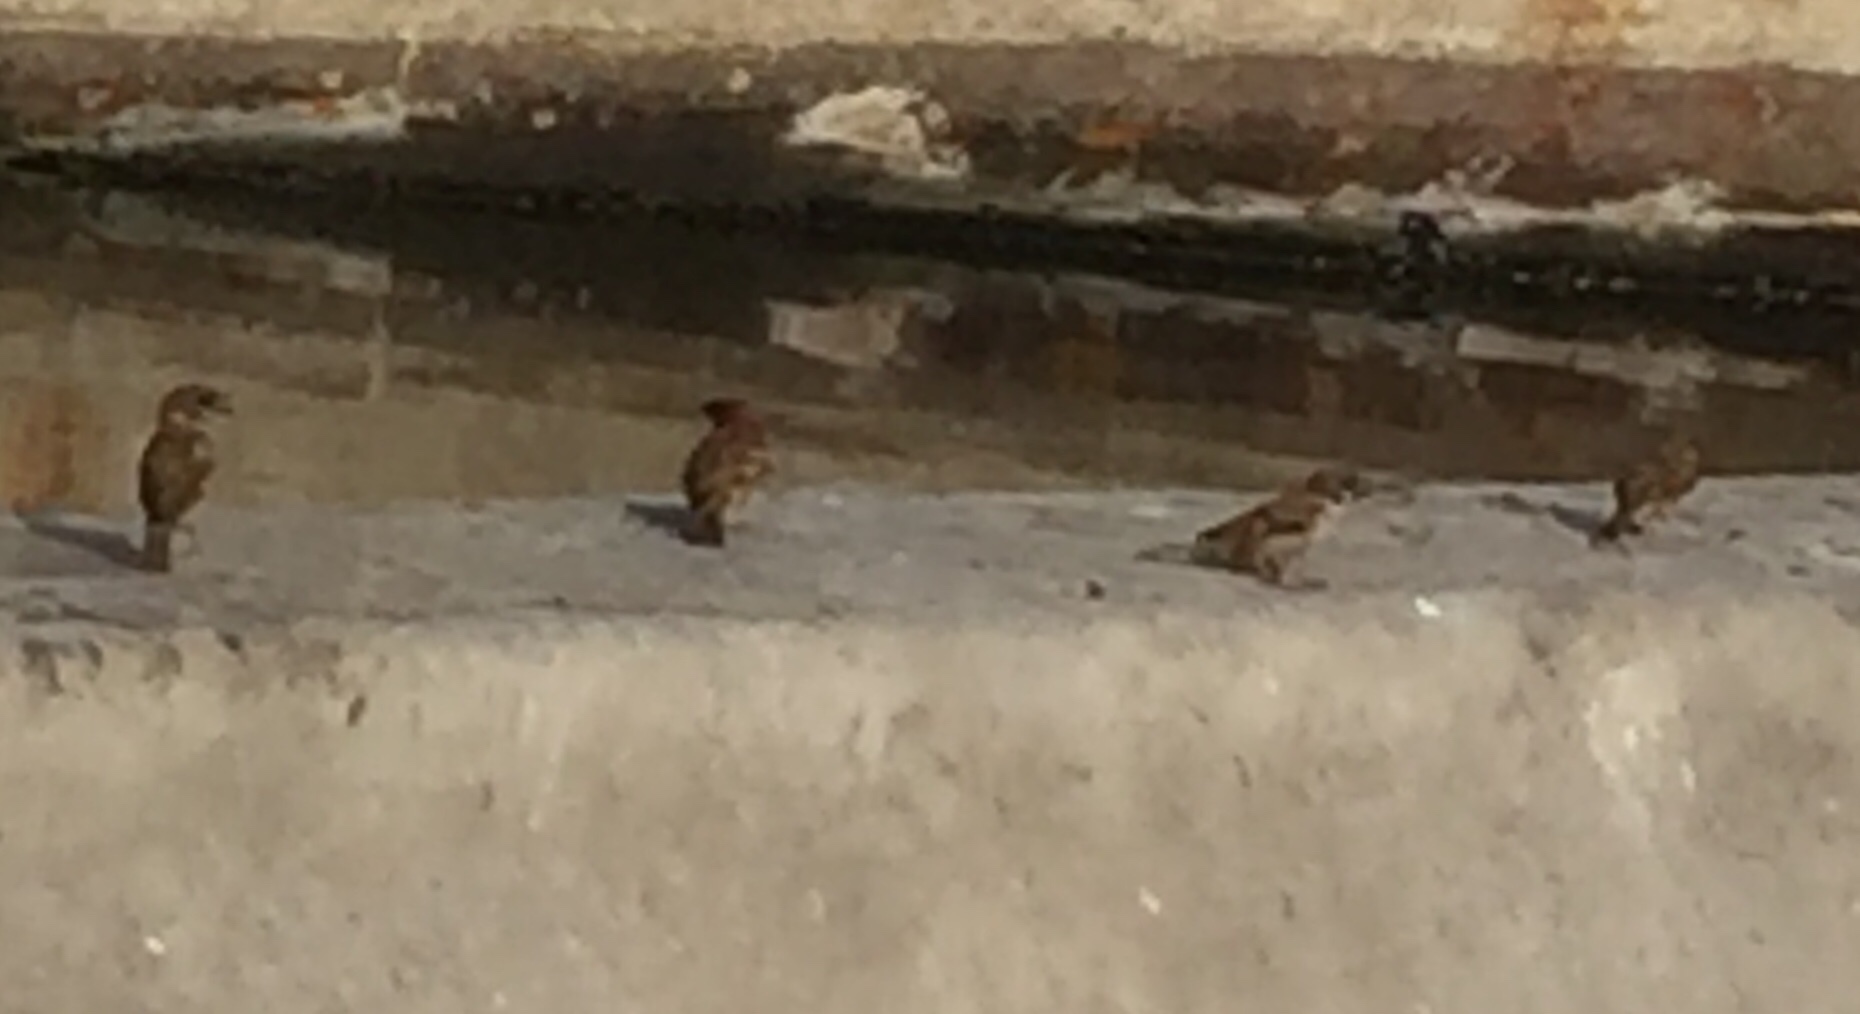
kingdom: Animalia
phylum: Chordata
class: Aves
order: Passeriformes
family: Passeridae
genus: Passer
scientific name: Passer montanus
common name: Eurasian tree sparrow
